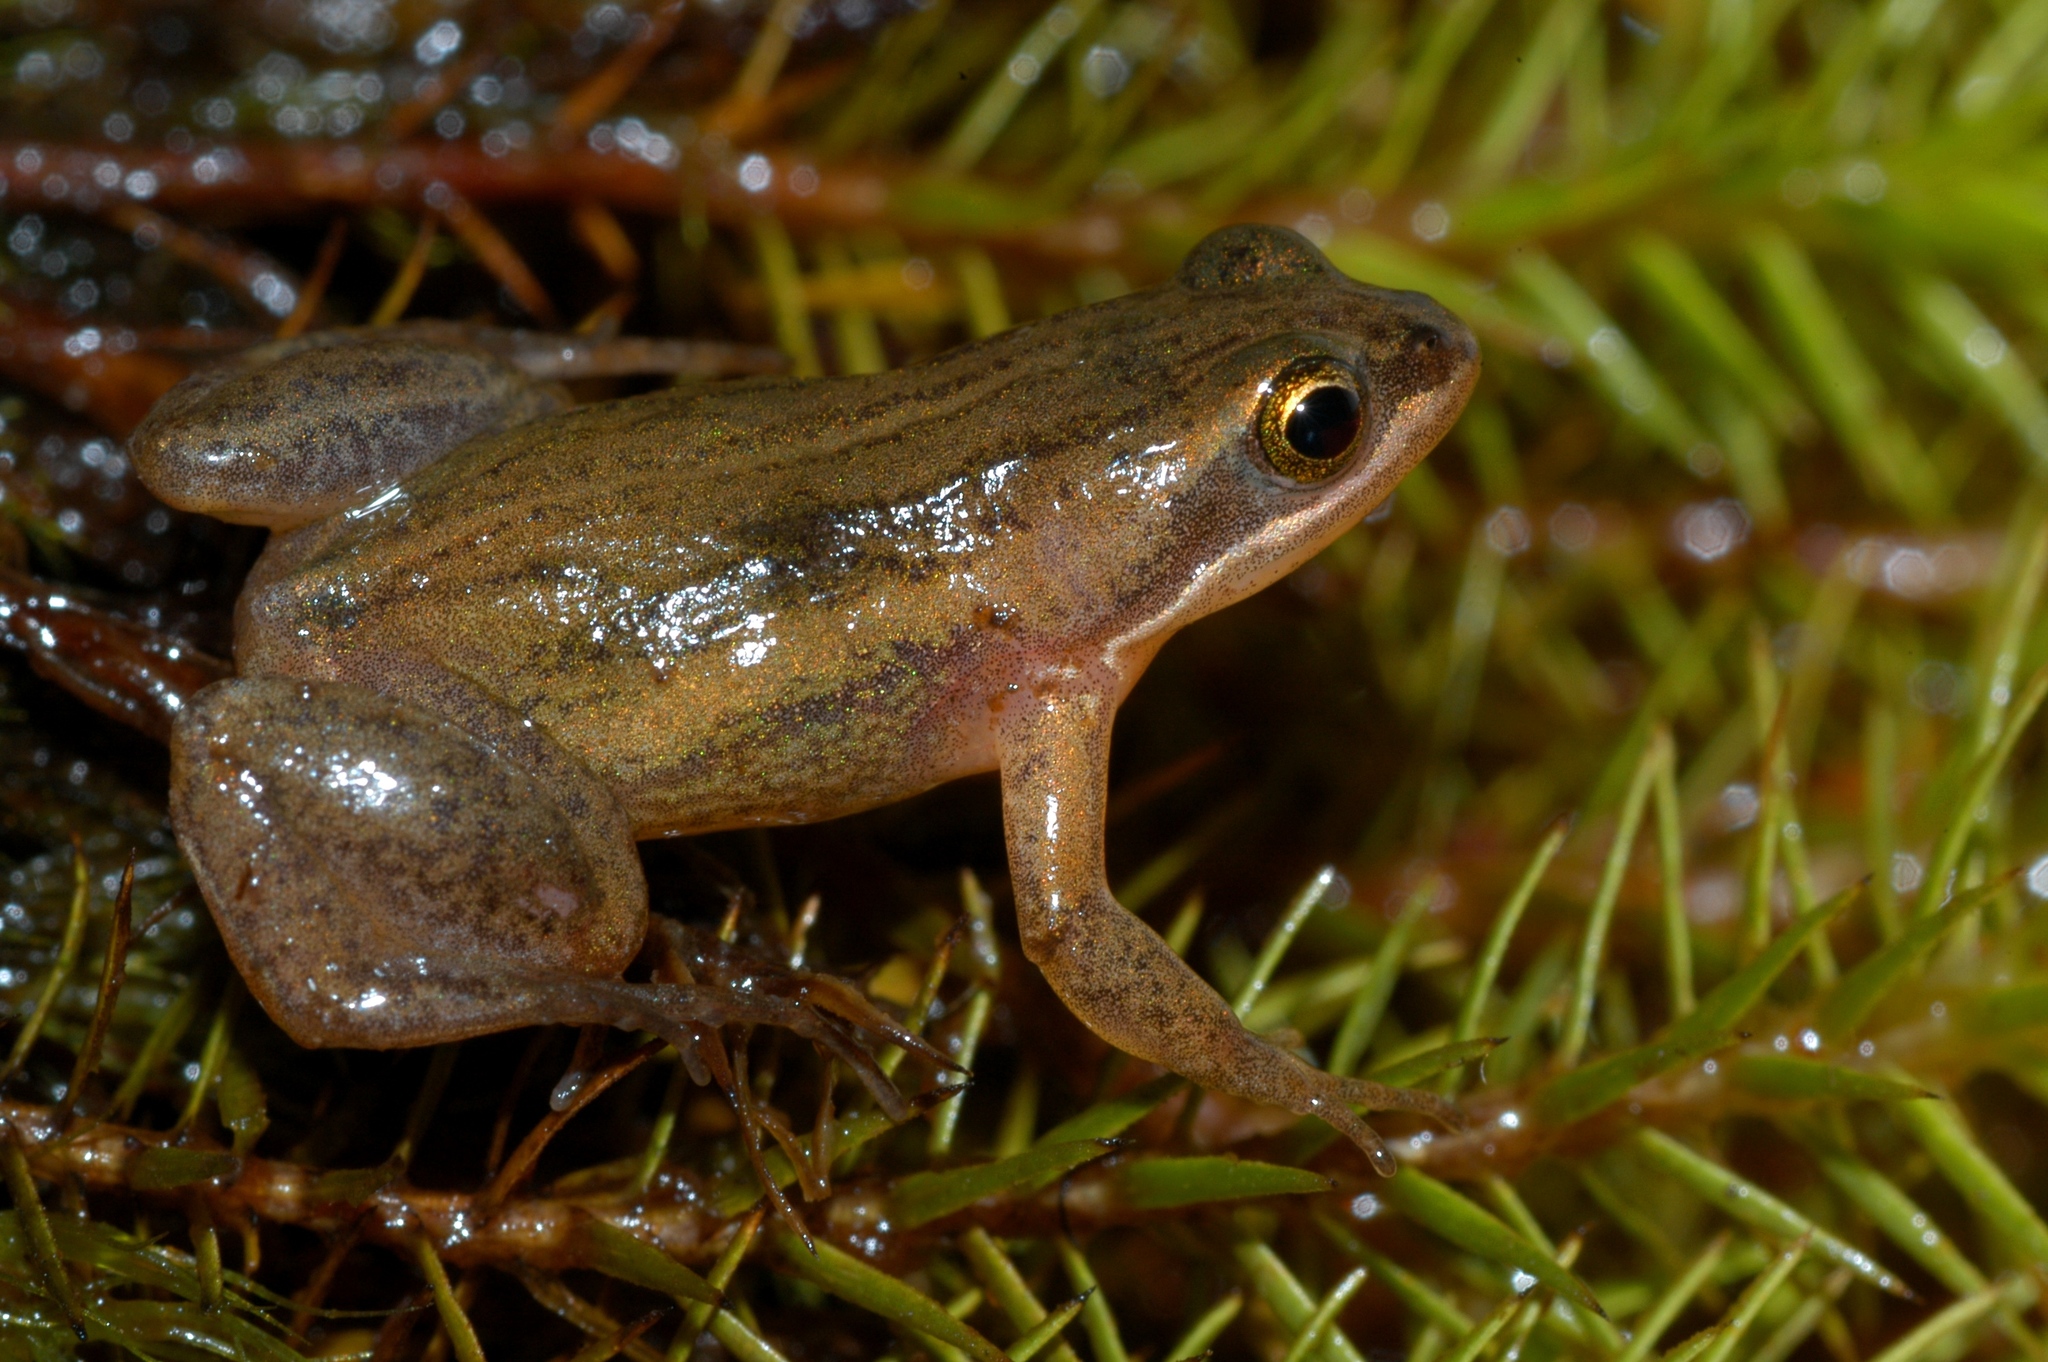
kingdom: Animalia
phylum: Chordata
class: Amphibia
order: Anura
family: Pyxicephalidae
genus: Cacosternum
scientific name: Cacosternum striatum
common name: Striped caco
